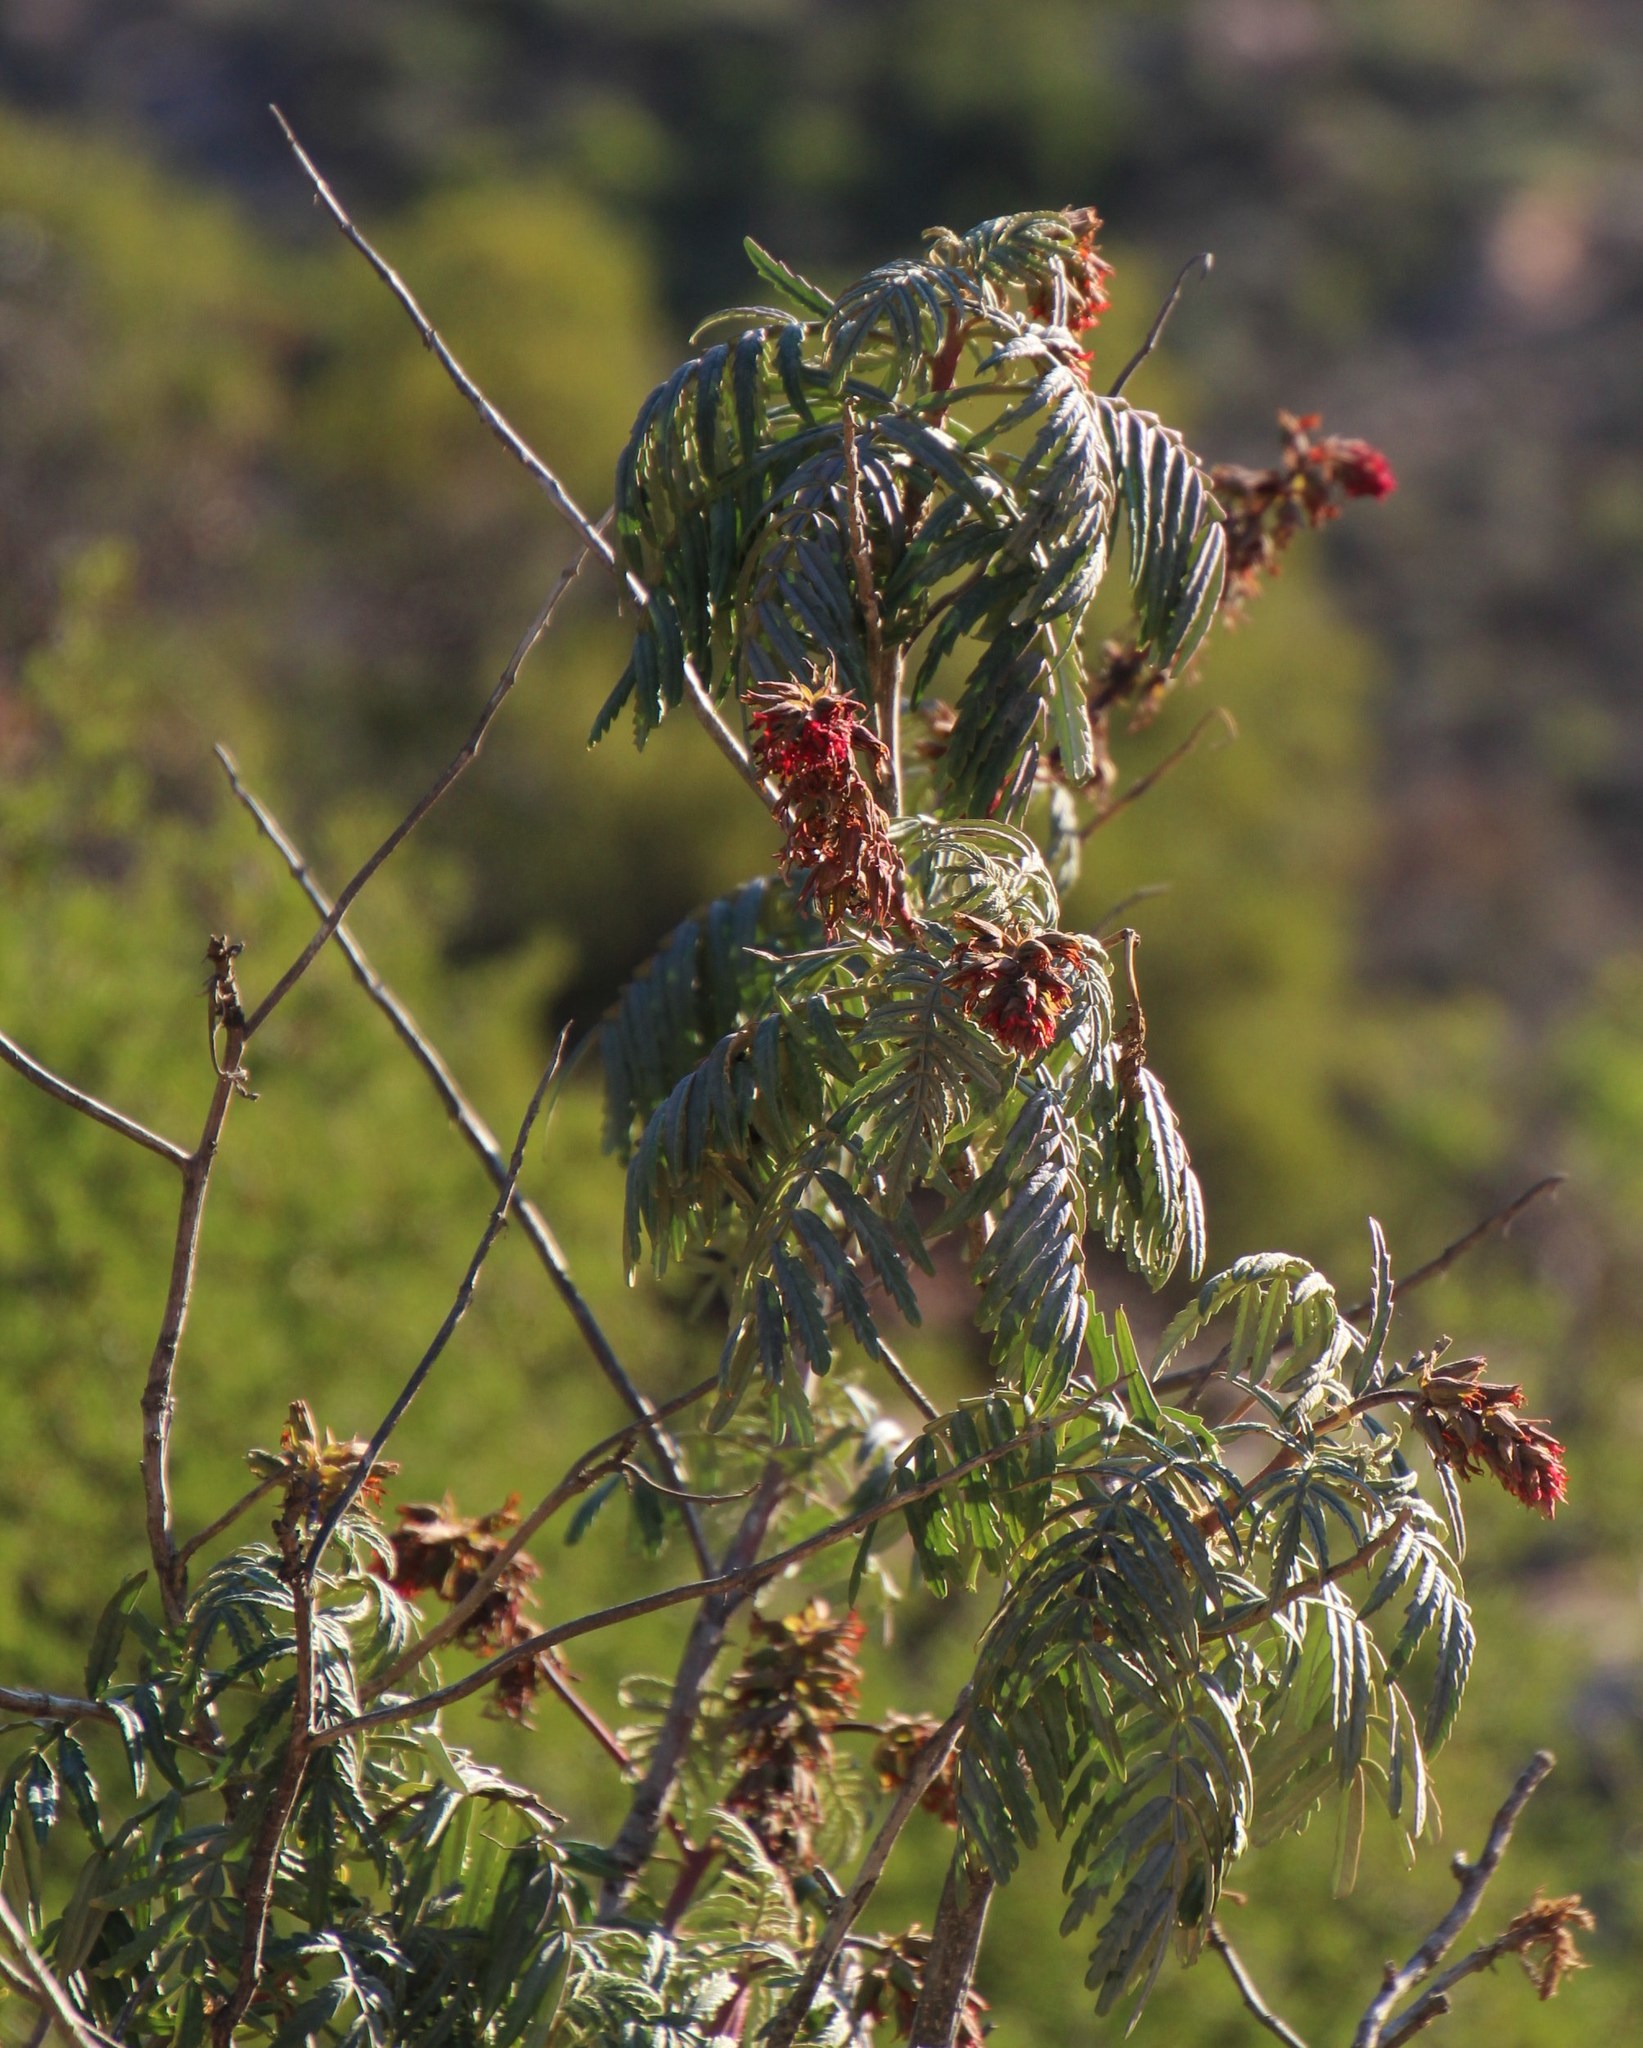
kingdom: Plantae
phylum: Tracheophyta
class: Magnoliopsida
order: Geraniales
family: Melianthaceae
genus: Melianthus
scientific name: Melianthus pectinatus
